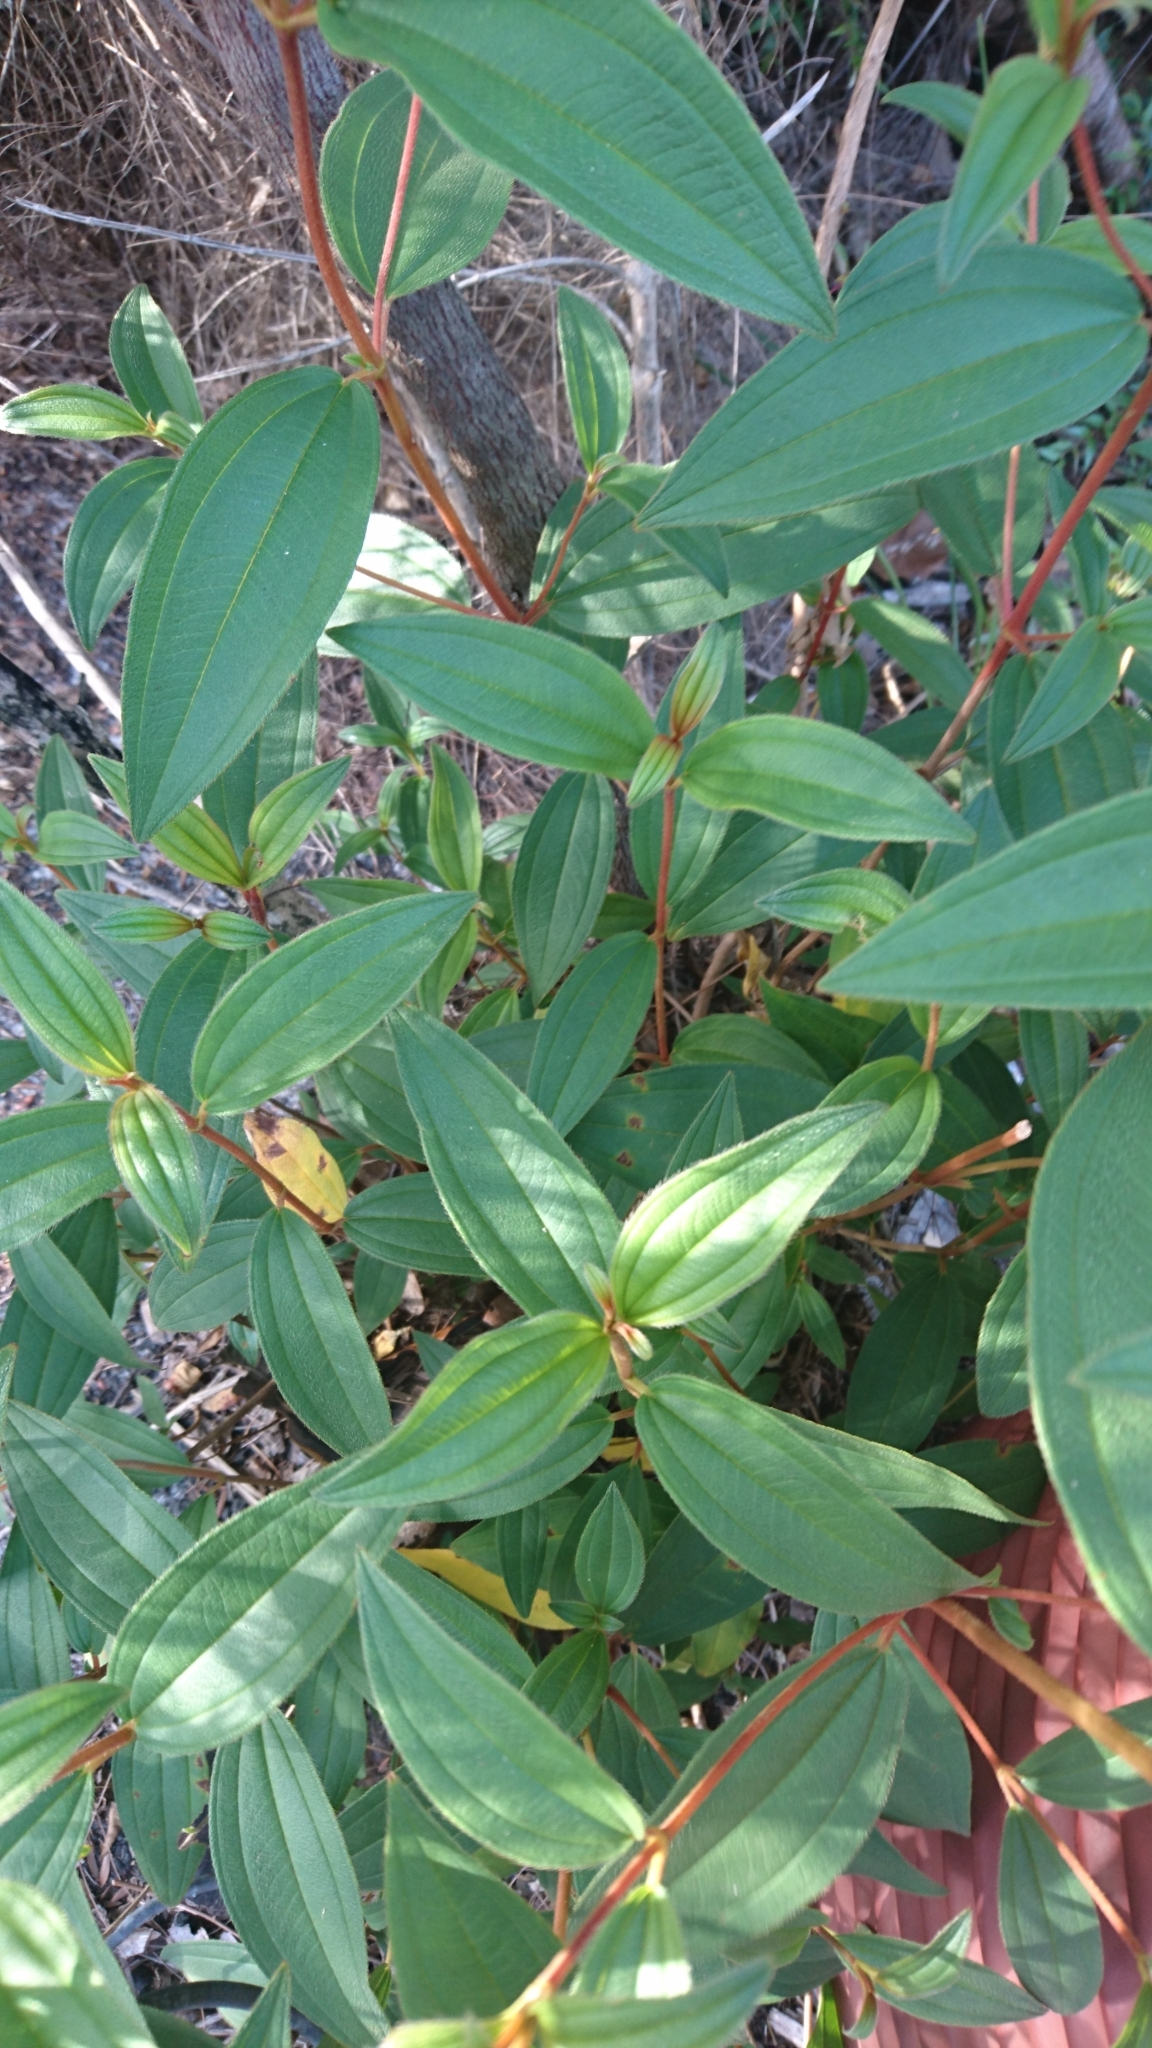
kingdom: Plantae
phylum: Tracheophyta
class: Magnoliopsida
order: Myrtales
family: Melastomataceae
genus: Melastoma
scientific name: Melastoma malabathricum
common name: Indian-rhododendron
